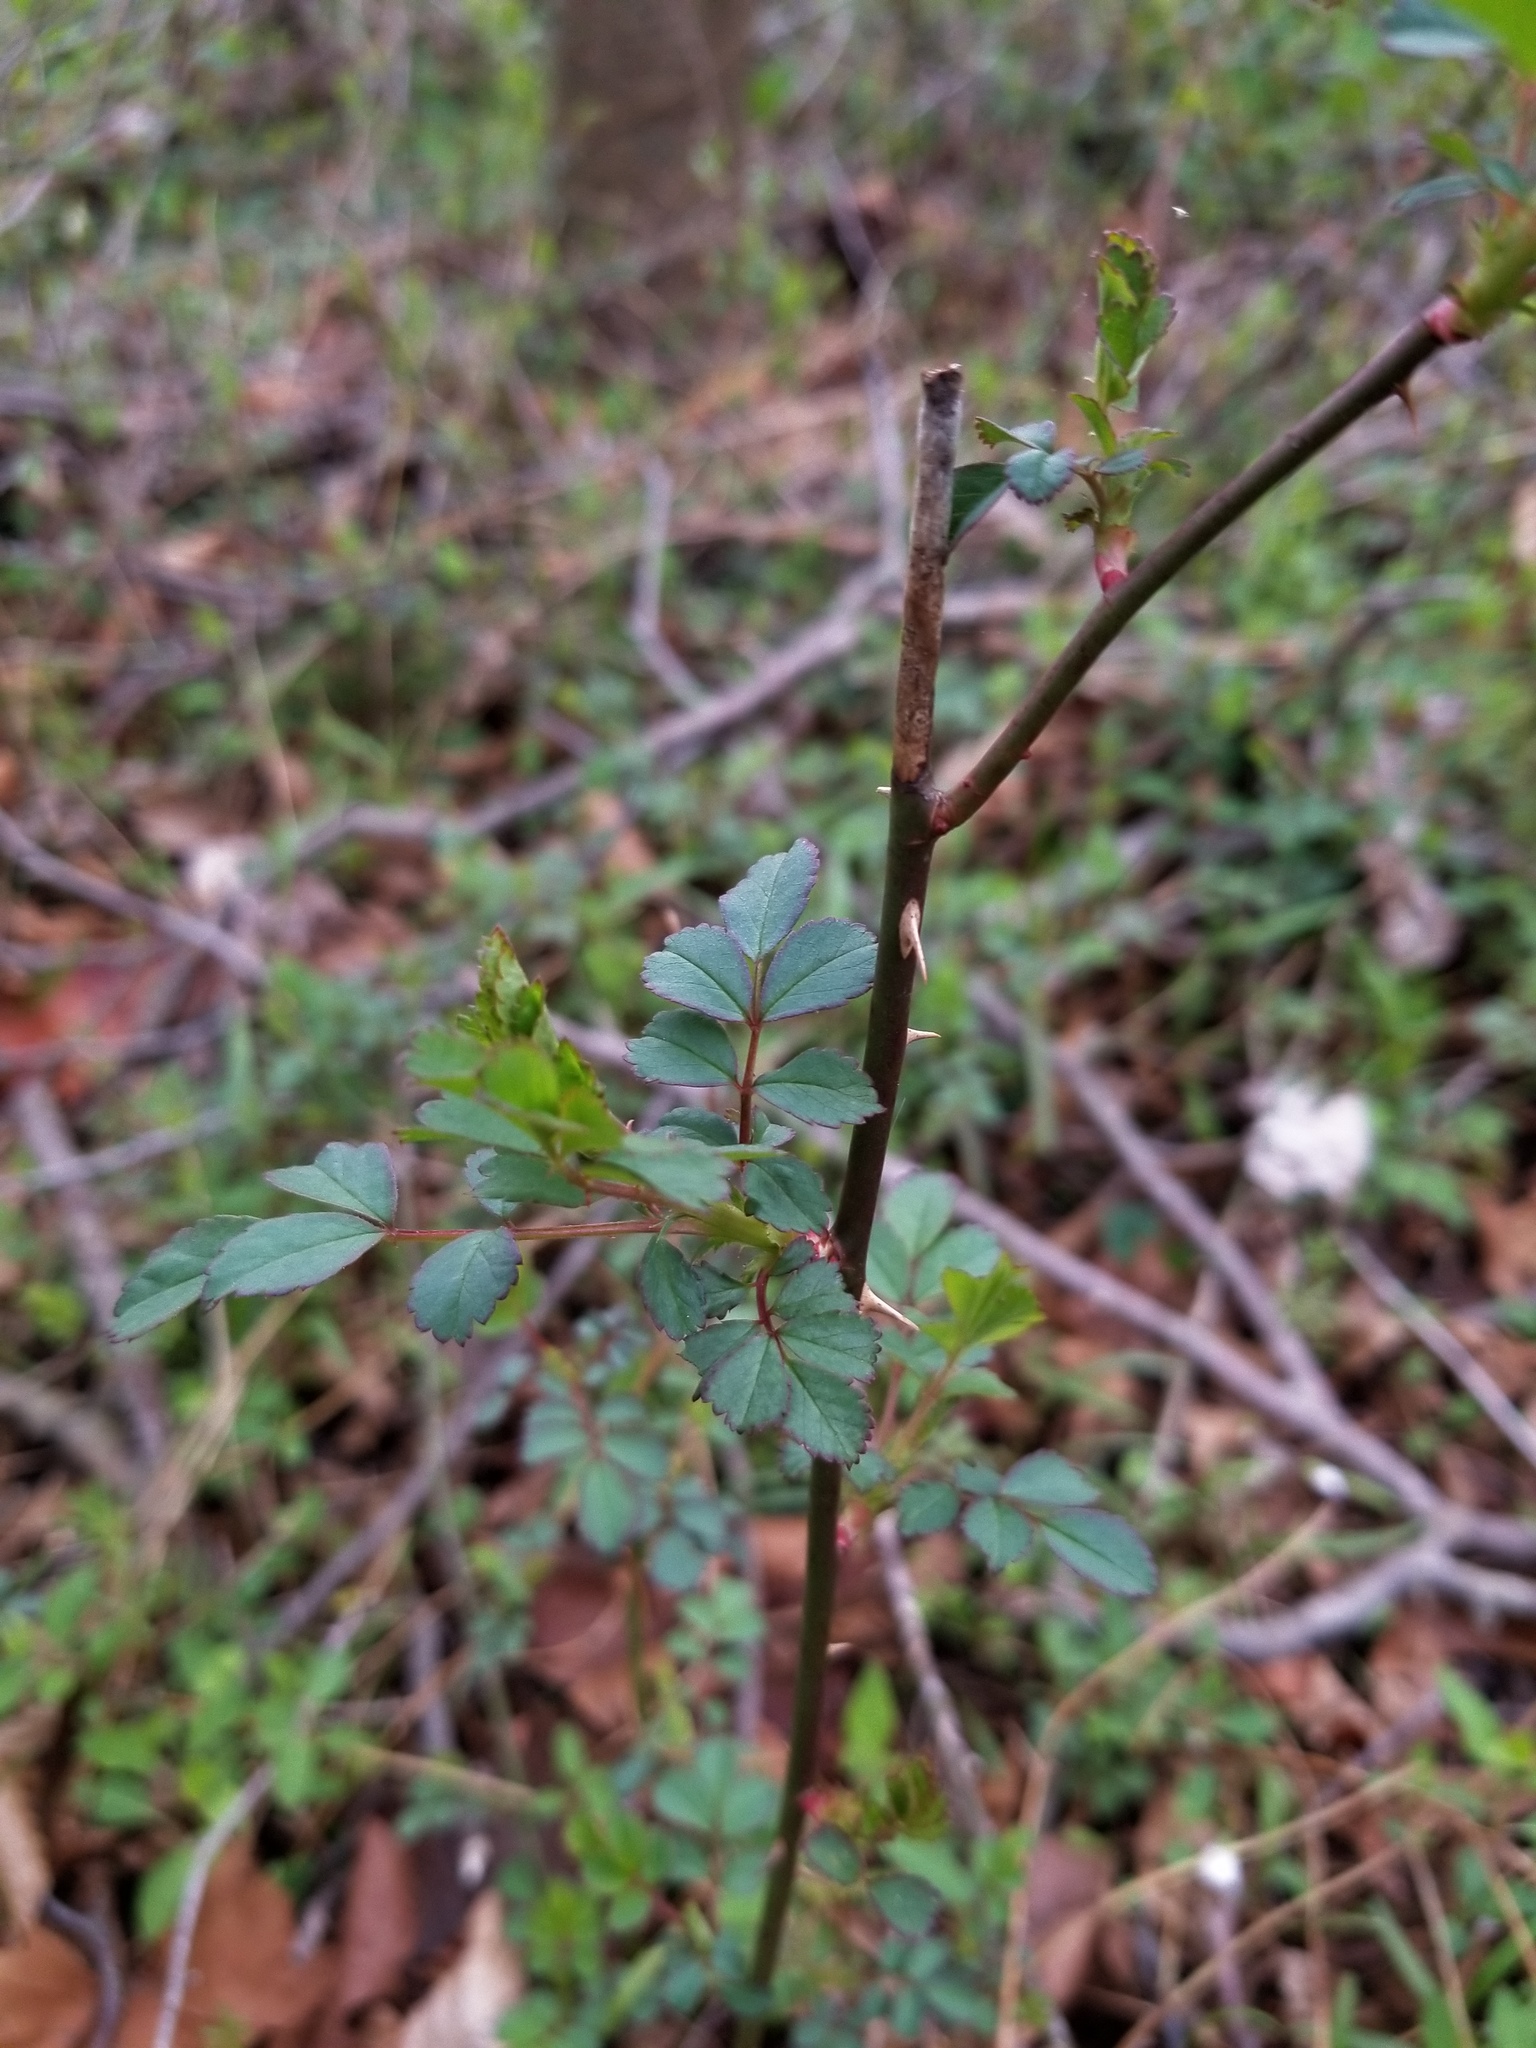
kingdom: Plantae
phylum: Tracheophyta
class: Magnoliopsida
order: Rosales
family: Rosaceae
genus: Rosa
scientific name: Rosa multiflora
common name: Multiflora rose
